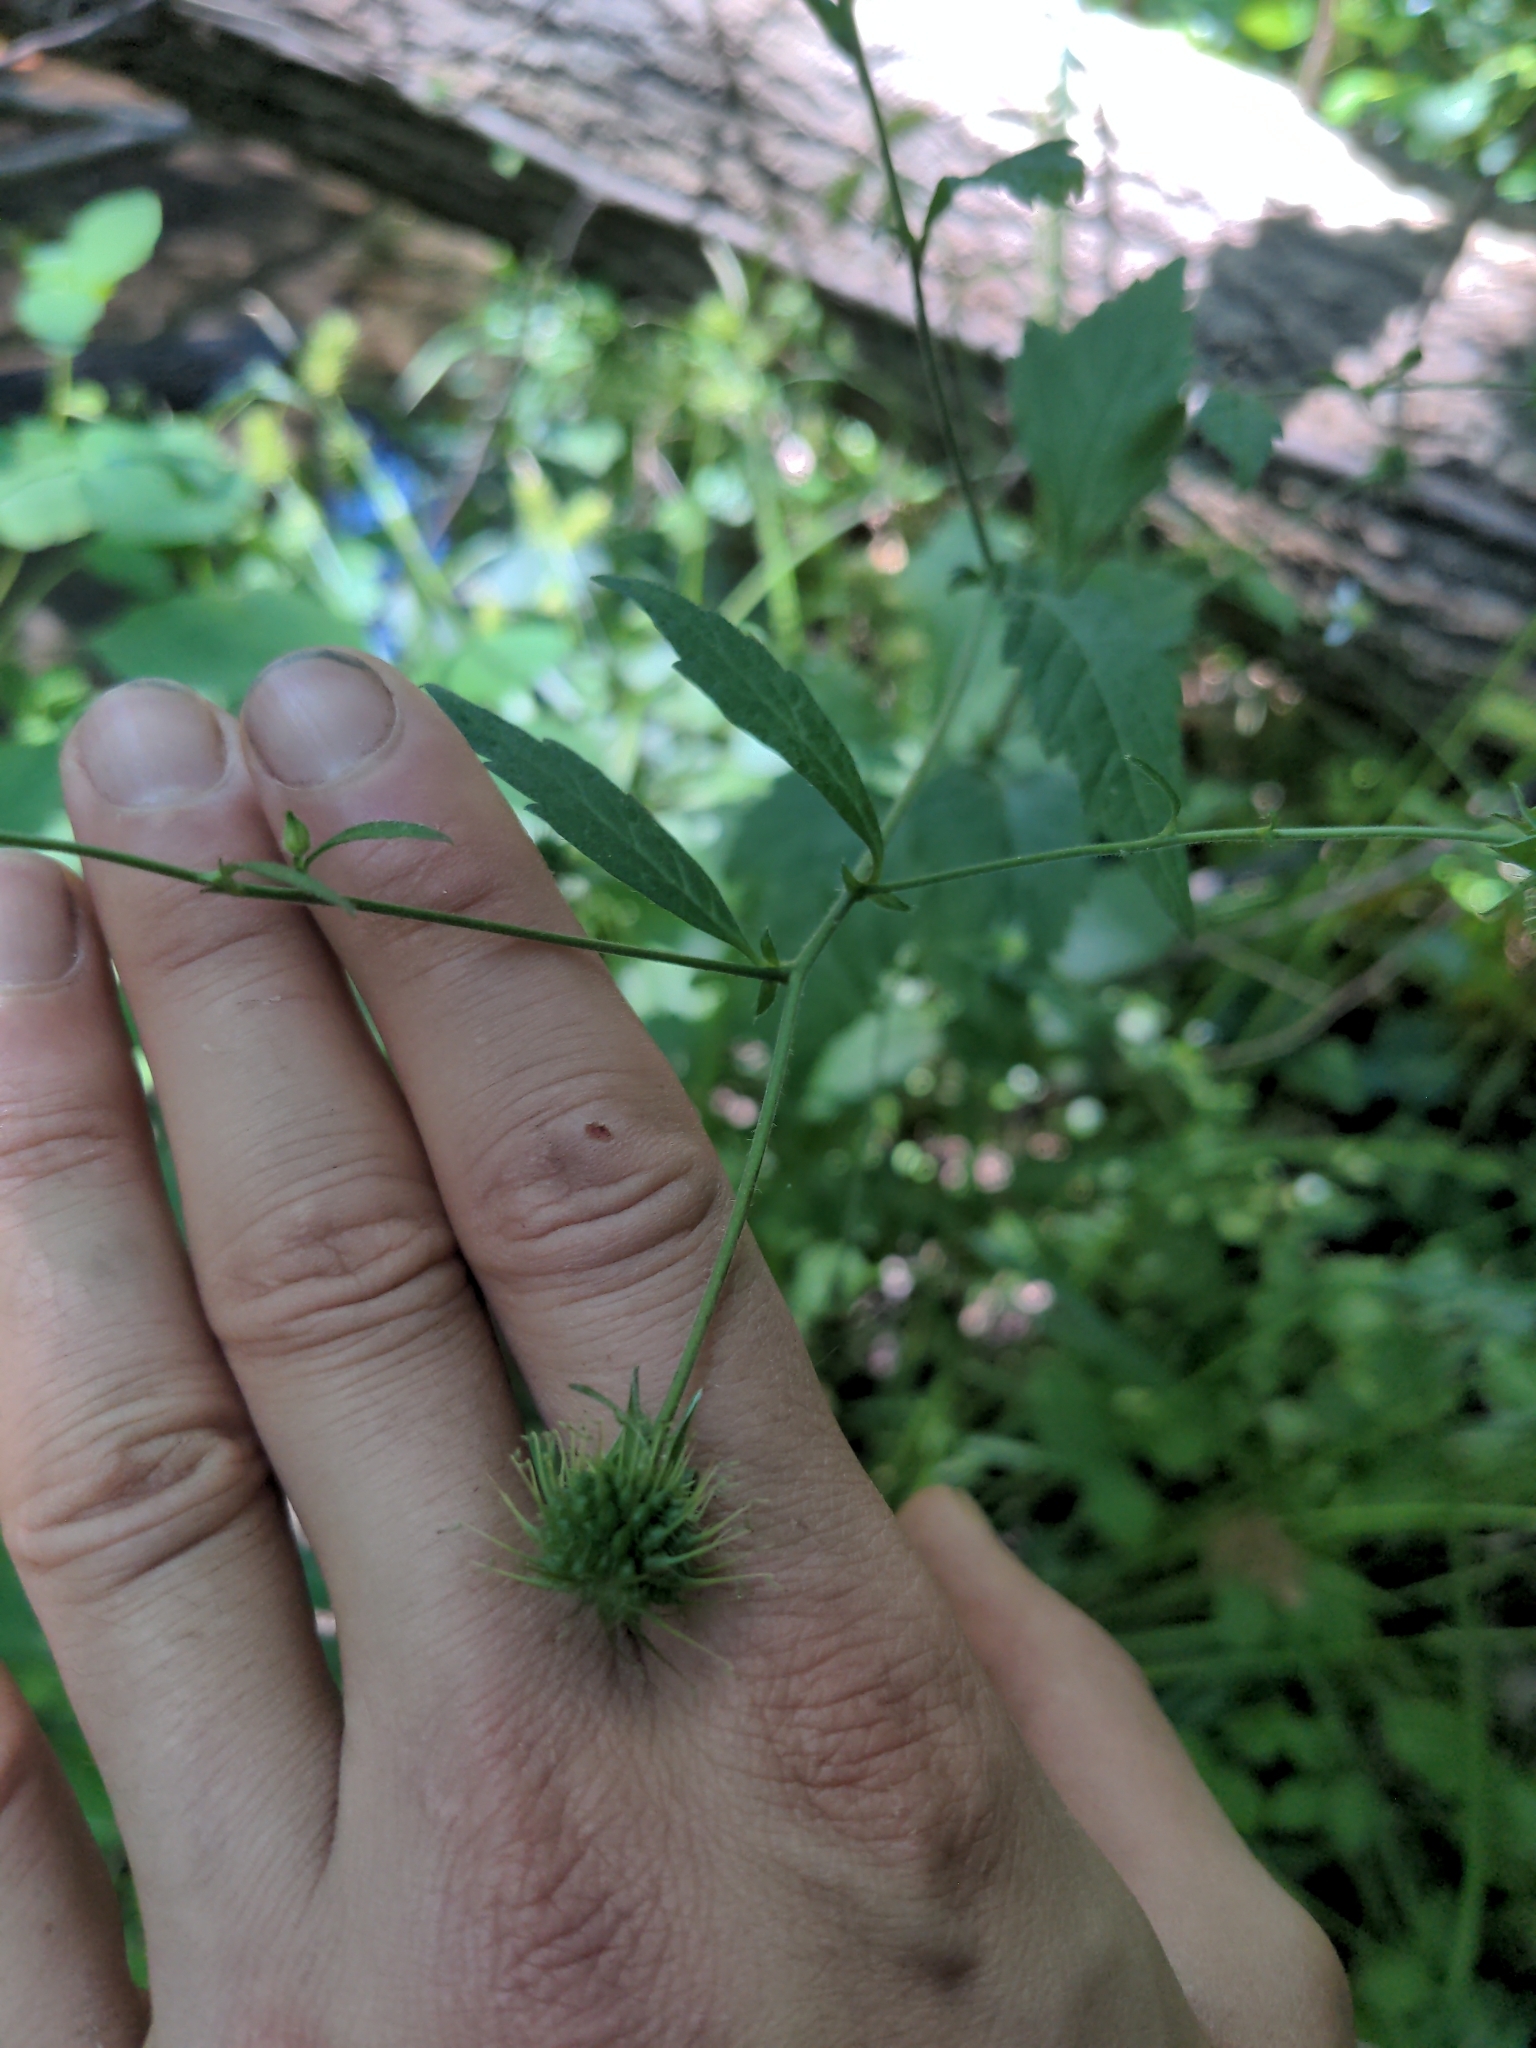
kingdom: Plantae
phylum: Tracheophyta
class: Magnoliopsida
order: Rosales
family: Rosaceae
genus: Geum
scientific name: Geum canadense
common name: White avens
